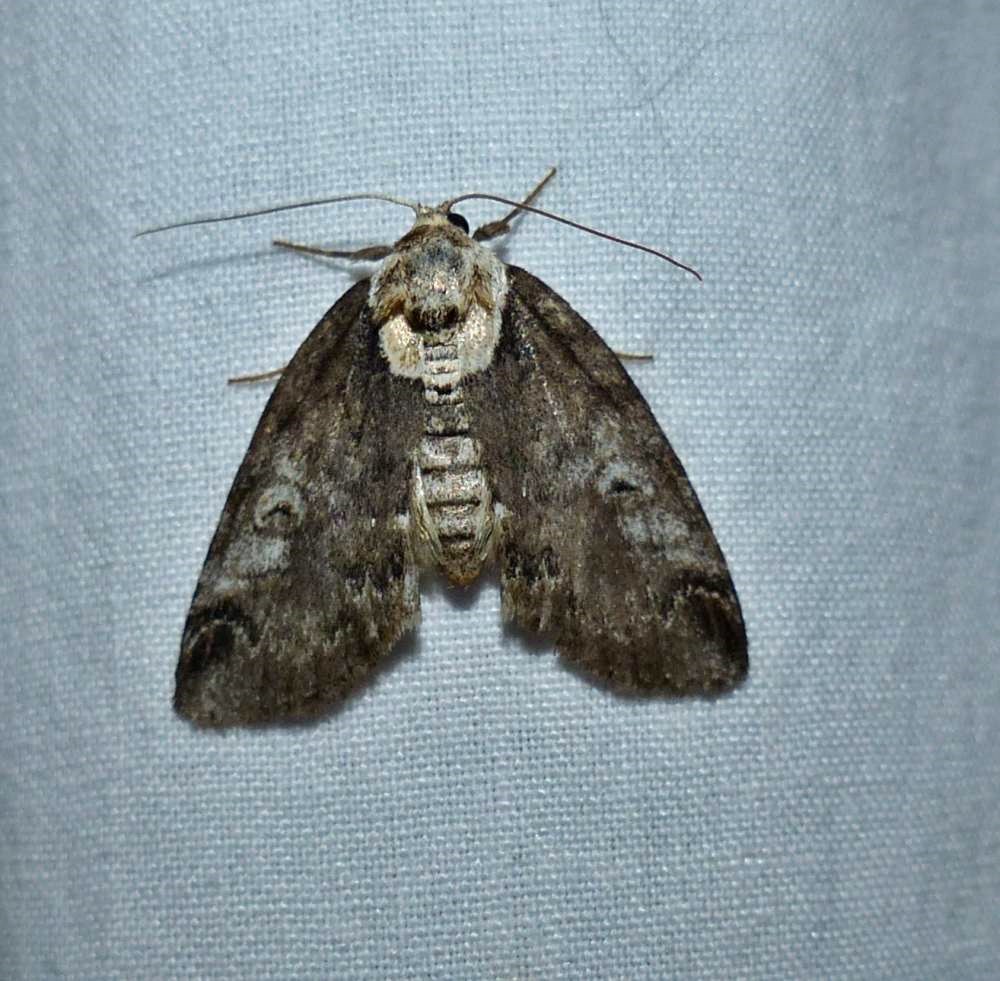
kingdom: Animalia
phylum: Arthropoda
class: Insecta
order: Lepidoptera
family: Nolidae
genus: Baileya
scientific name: Baileya ophthalmica
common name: Eyed baileya moth
